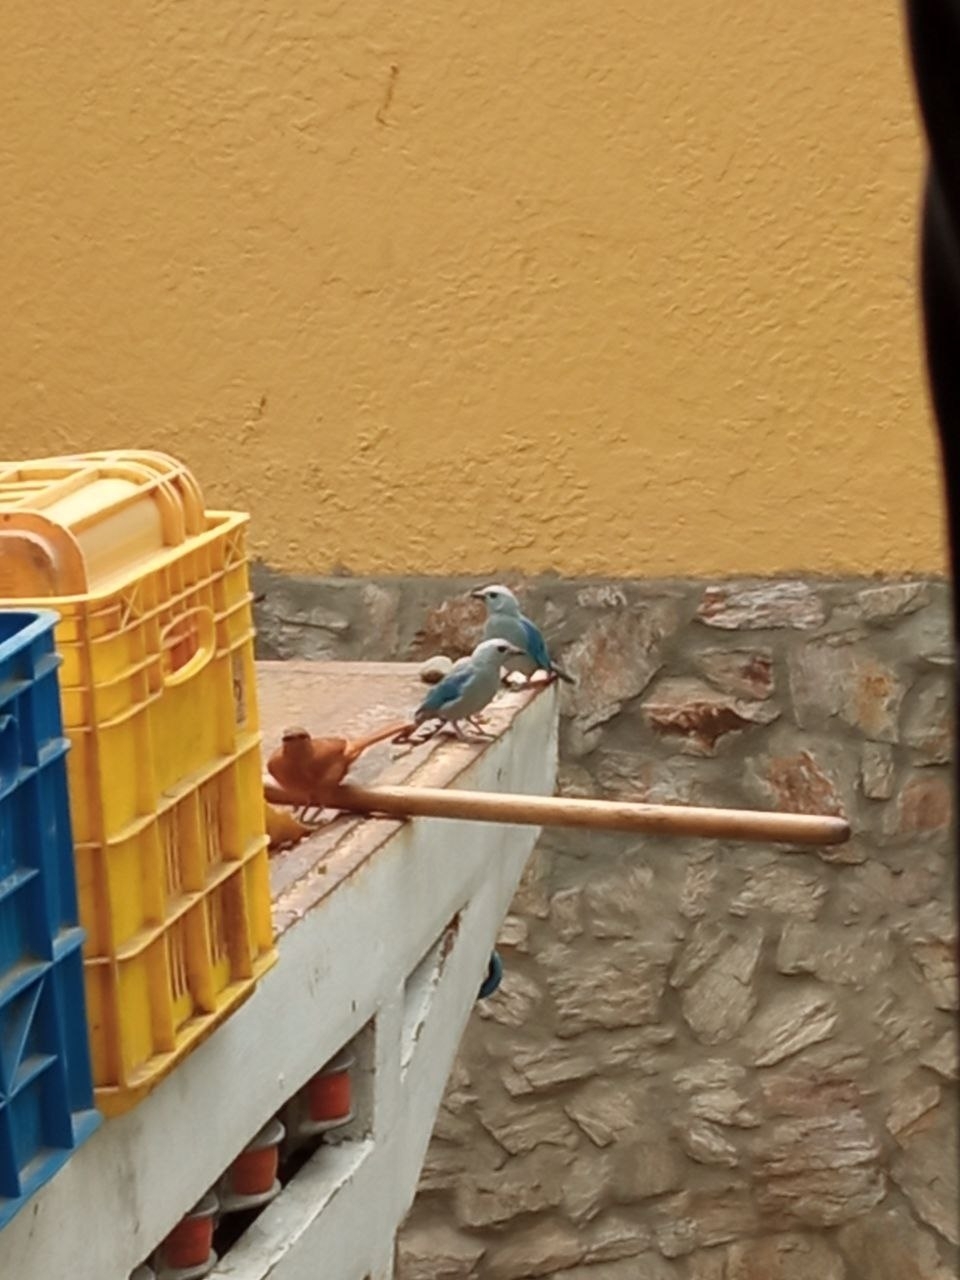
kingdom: Animalia
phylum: Chordata
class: Aves
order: Passeriformes
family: Thraupidae
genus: Thraupis
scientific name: Thraupis episcopus
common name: Blue-grey tanager
